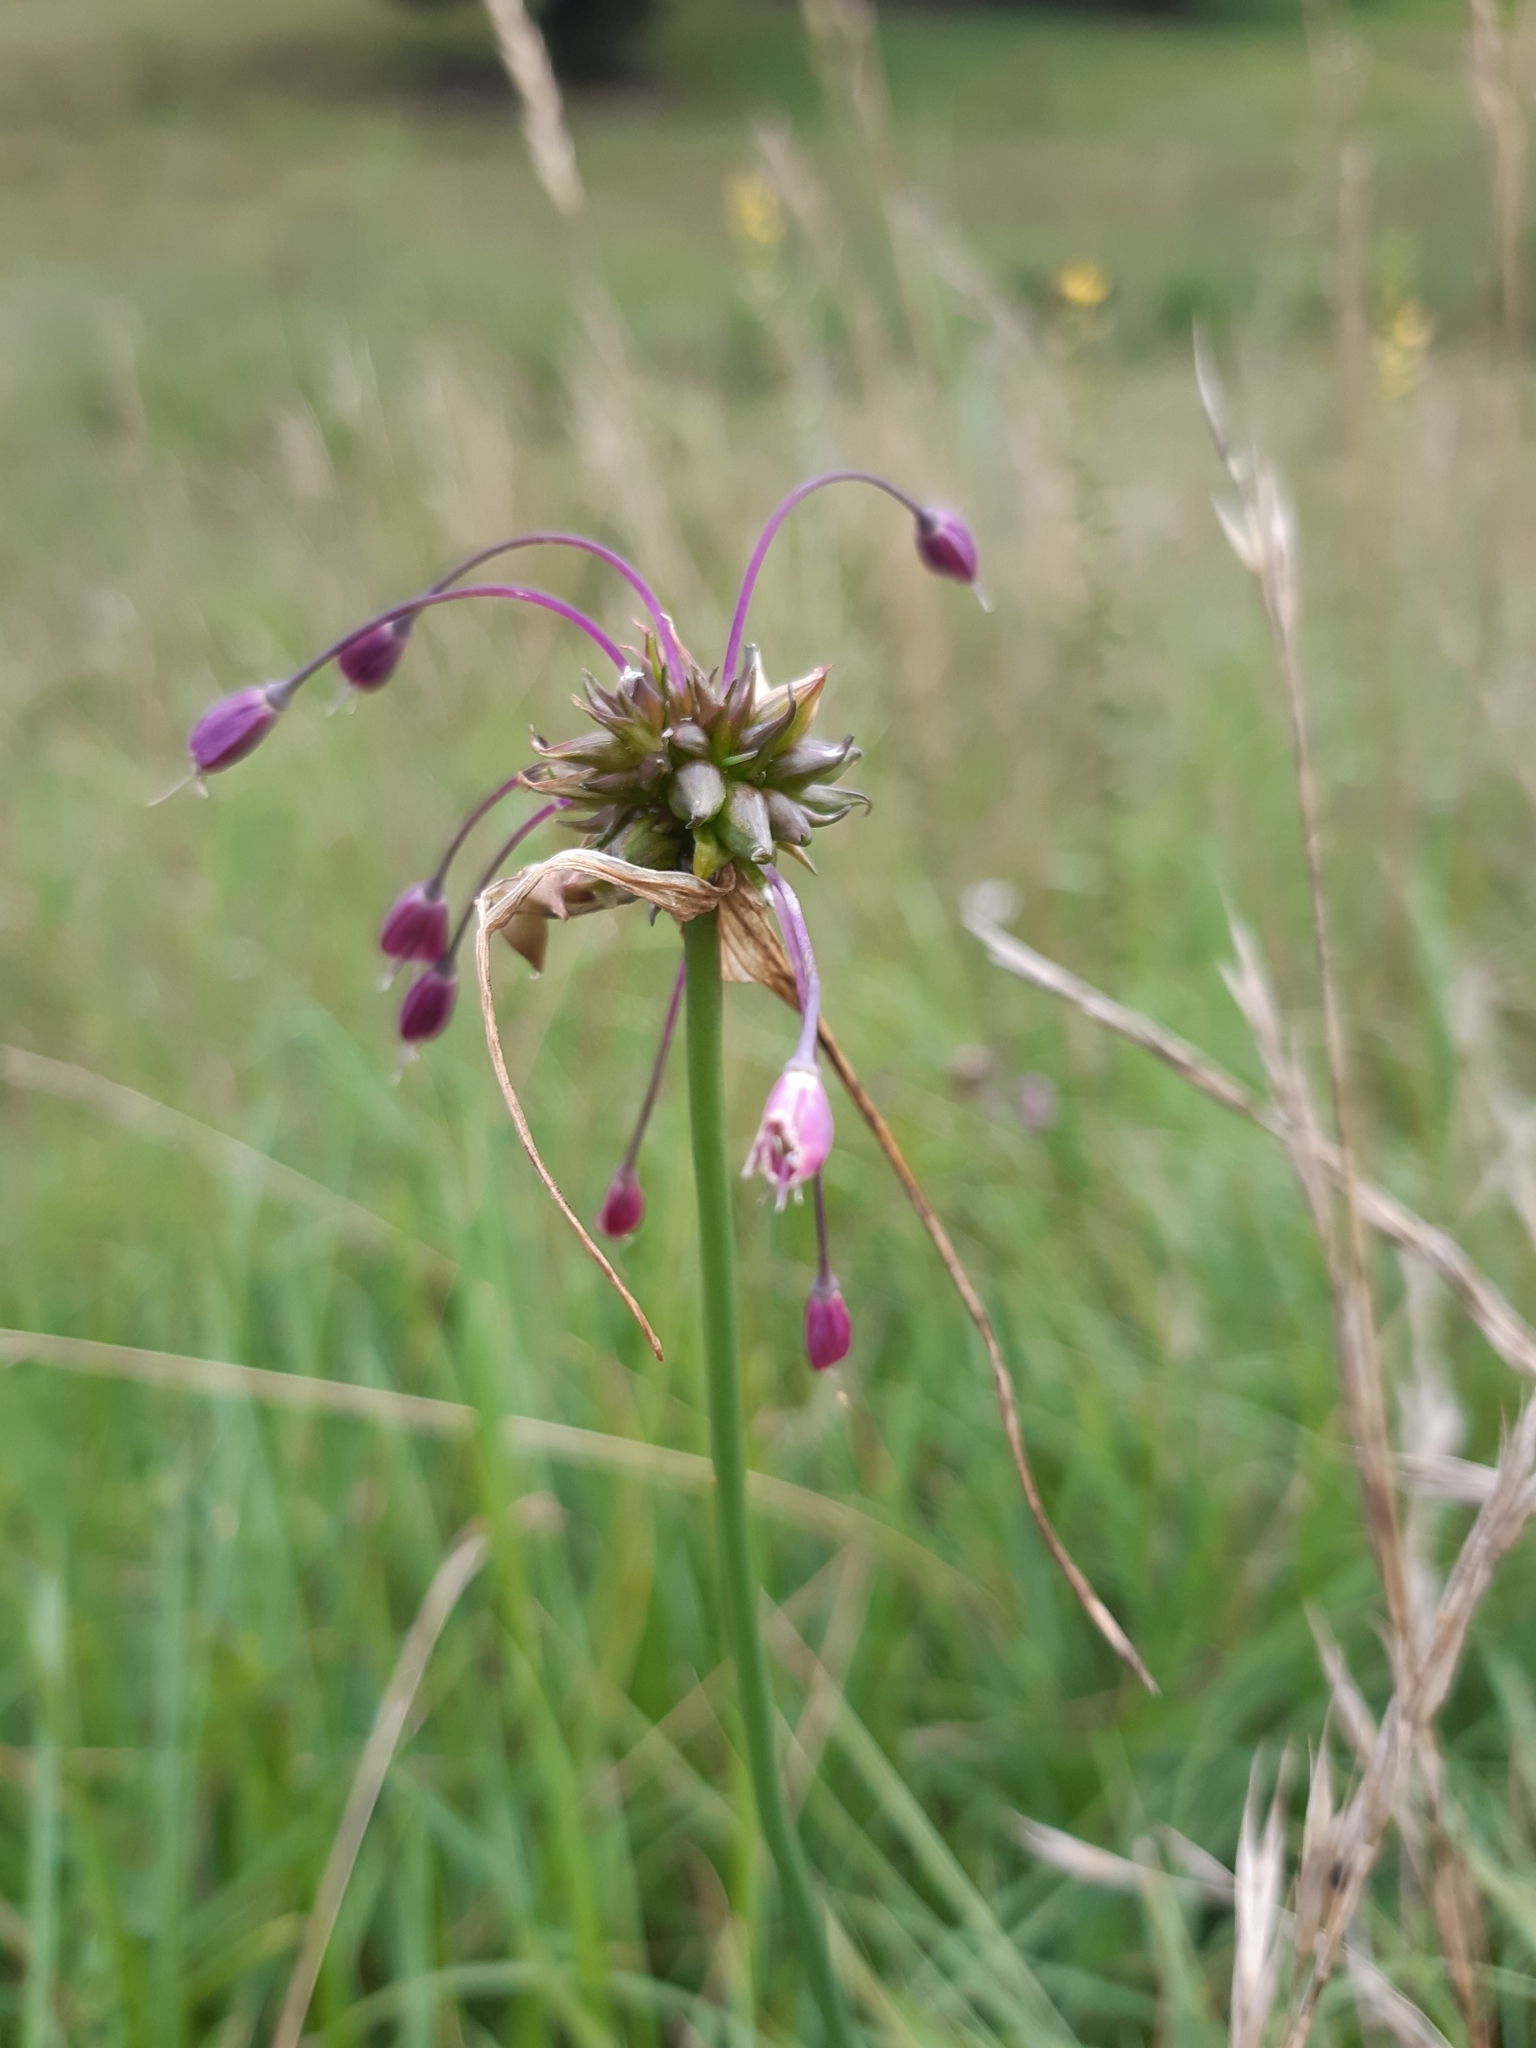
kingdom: Plantae
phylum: Tracheophyta
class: Liliopsida
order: Asparagales
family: Amaryllidaceae
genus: Allium
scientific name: Allium carinatum
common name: Keeled garlic
